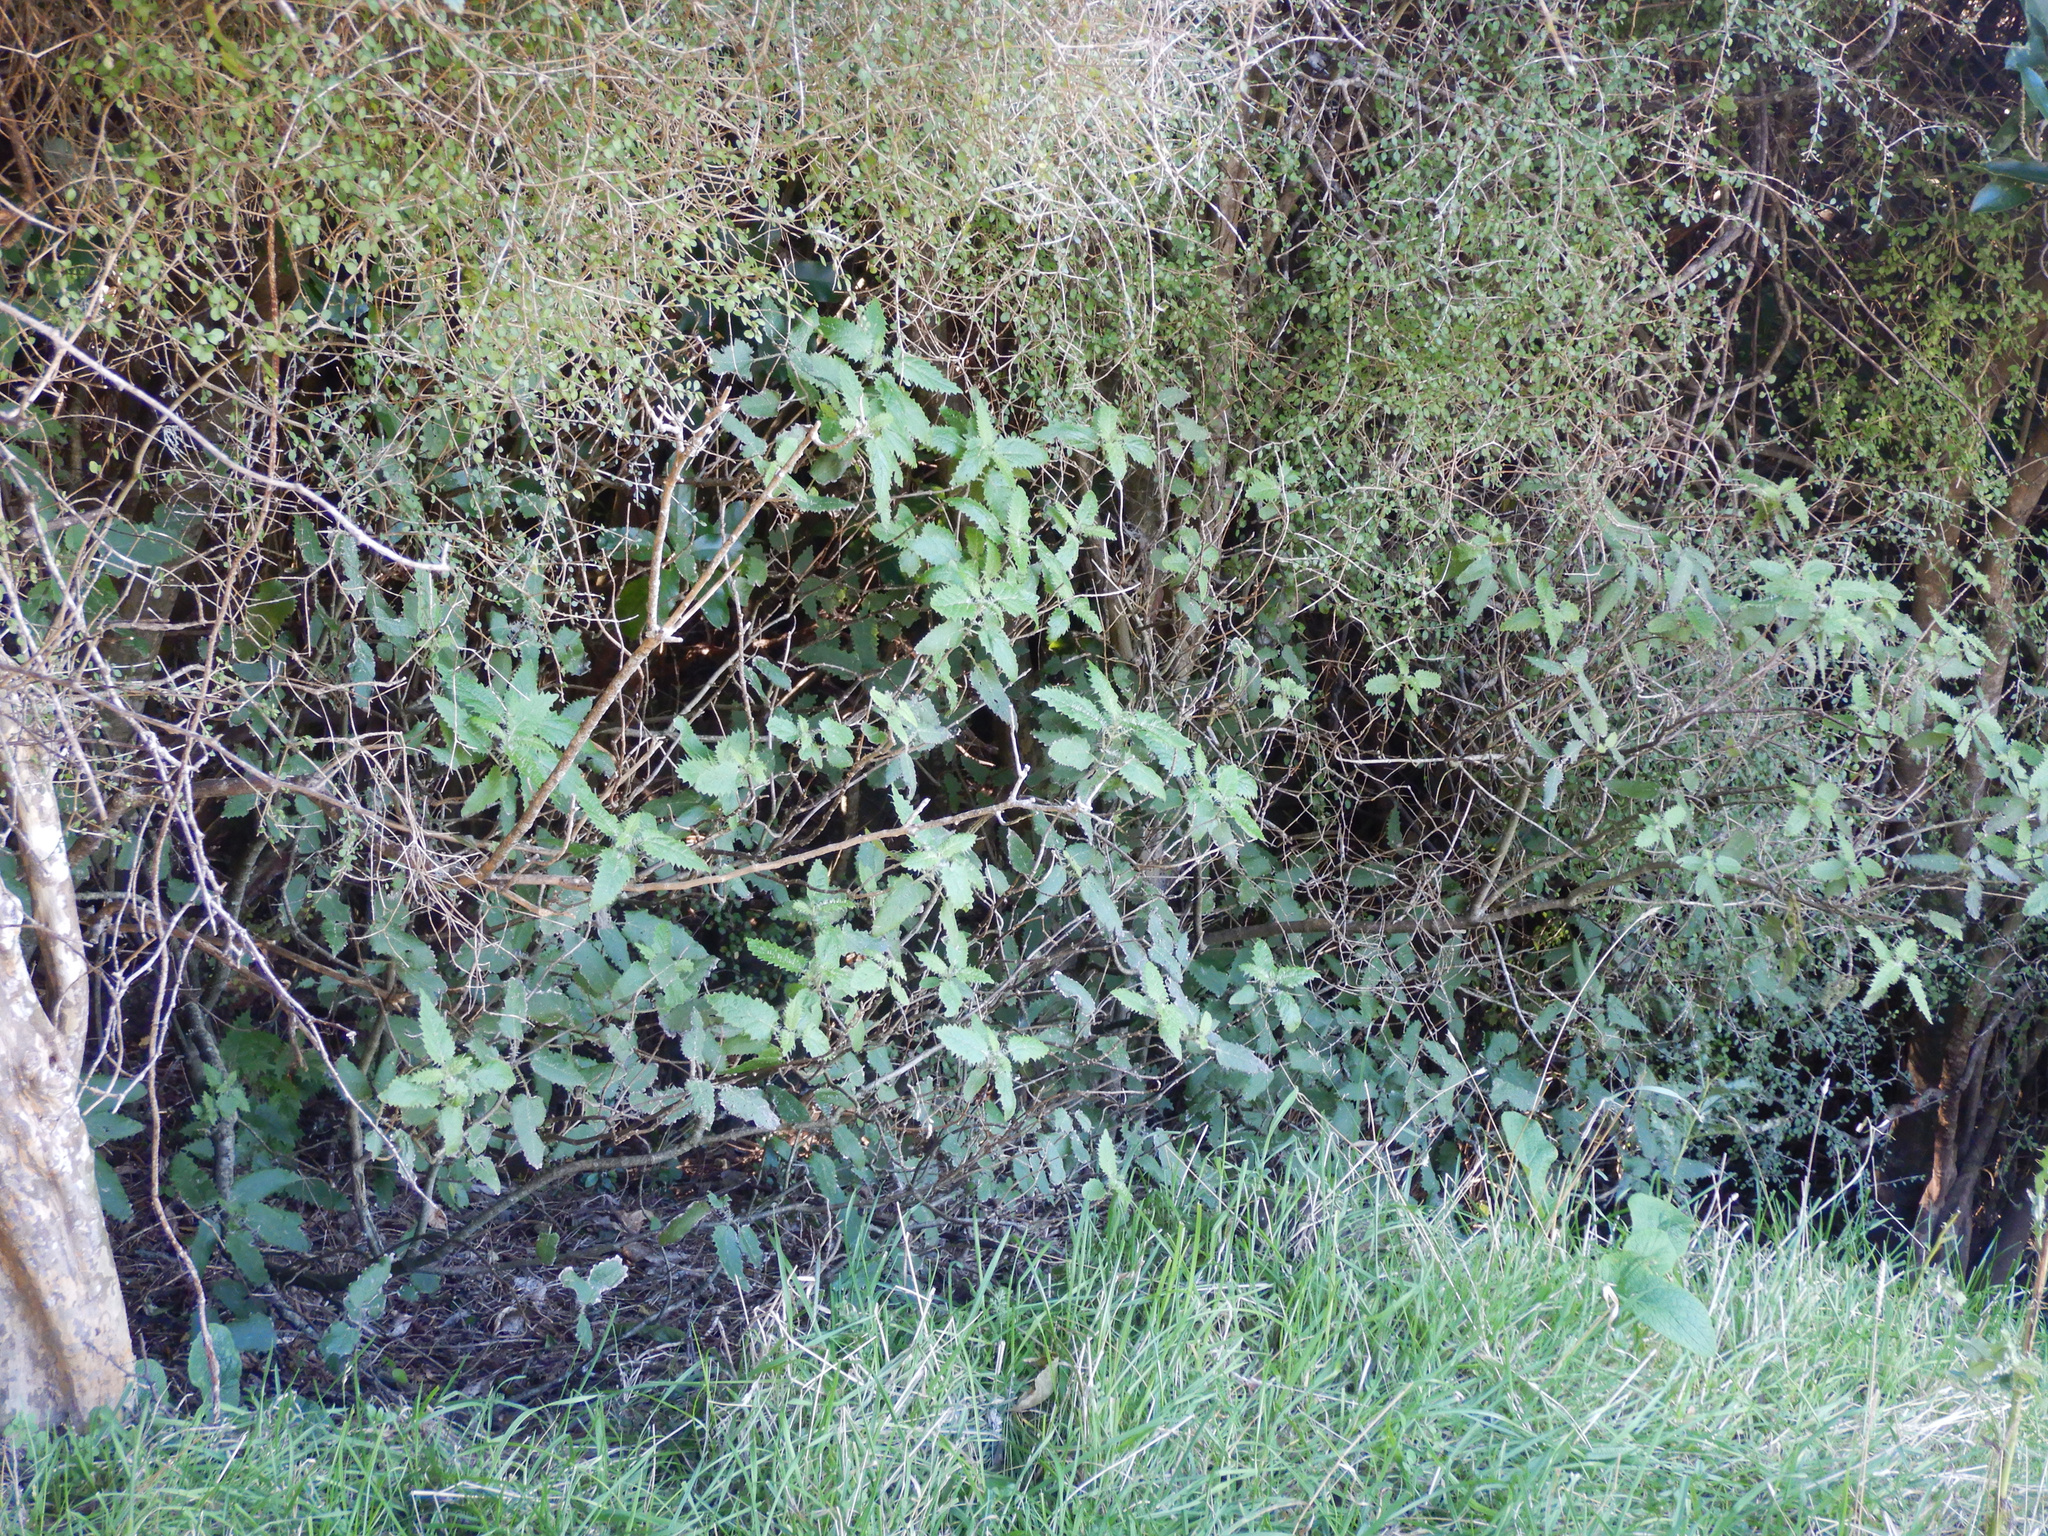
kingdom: Plantae
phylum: Tracheophyta
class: Magnoliopsida
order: Rosales
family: Urticaceae
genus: Urtica
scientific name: Urtica ferox
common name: Tree nettle
